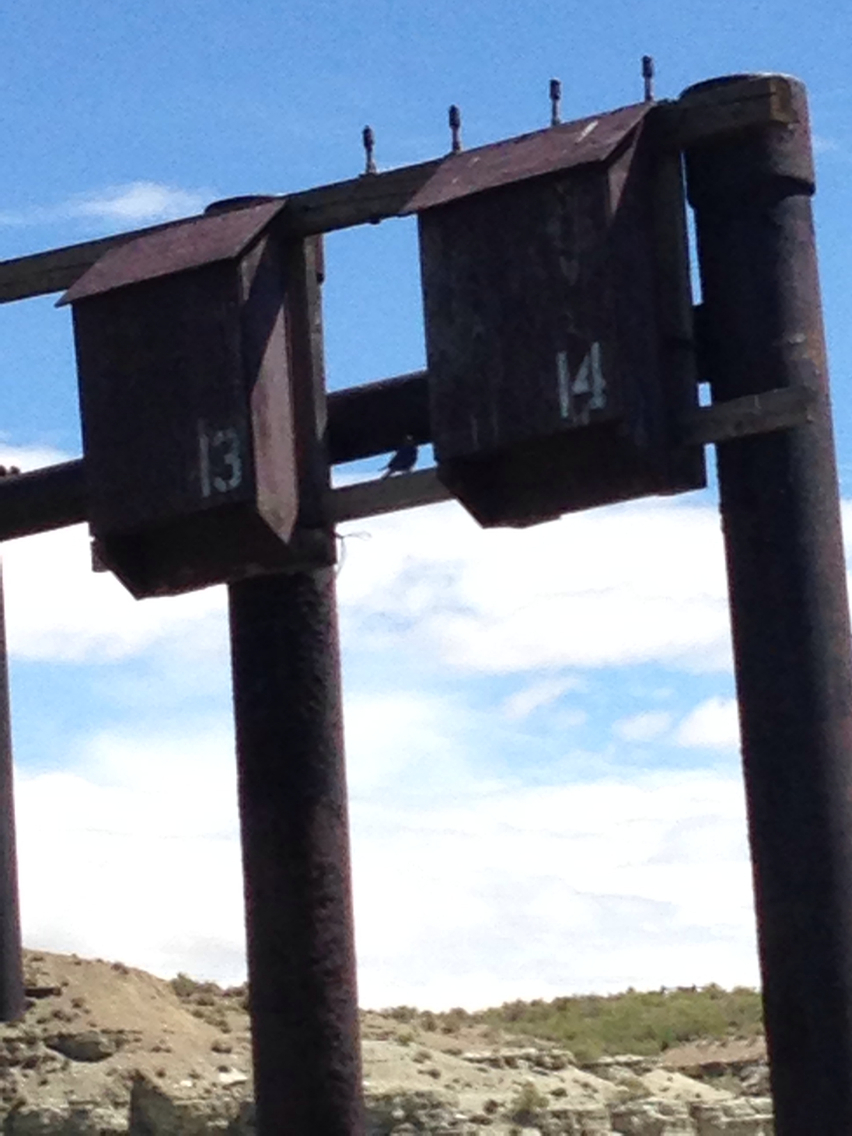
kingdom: Animalia
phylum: Chordata
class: Aves
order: Passeriformes
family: Turdidae
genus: Sialia
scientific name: Sialia currucoides
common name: Mountain bluebird
